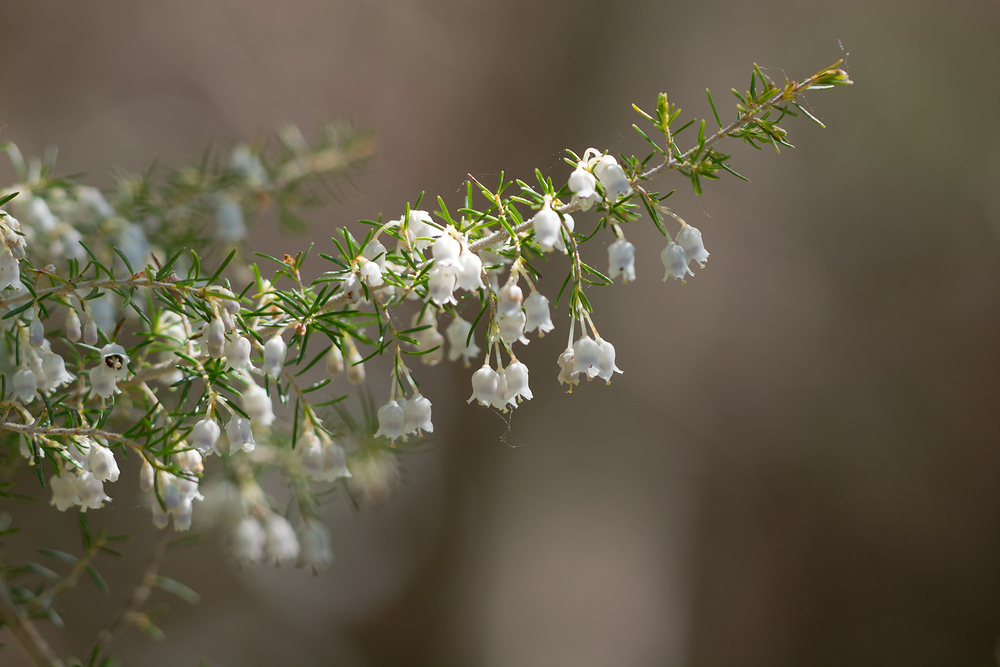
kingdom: Plantae
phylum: Tracheophyta
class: Magnoliopsida
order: Ericales
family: Ericaceae
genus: Erica
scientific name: Erica arborea
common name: Tree heath
